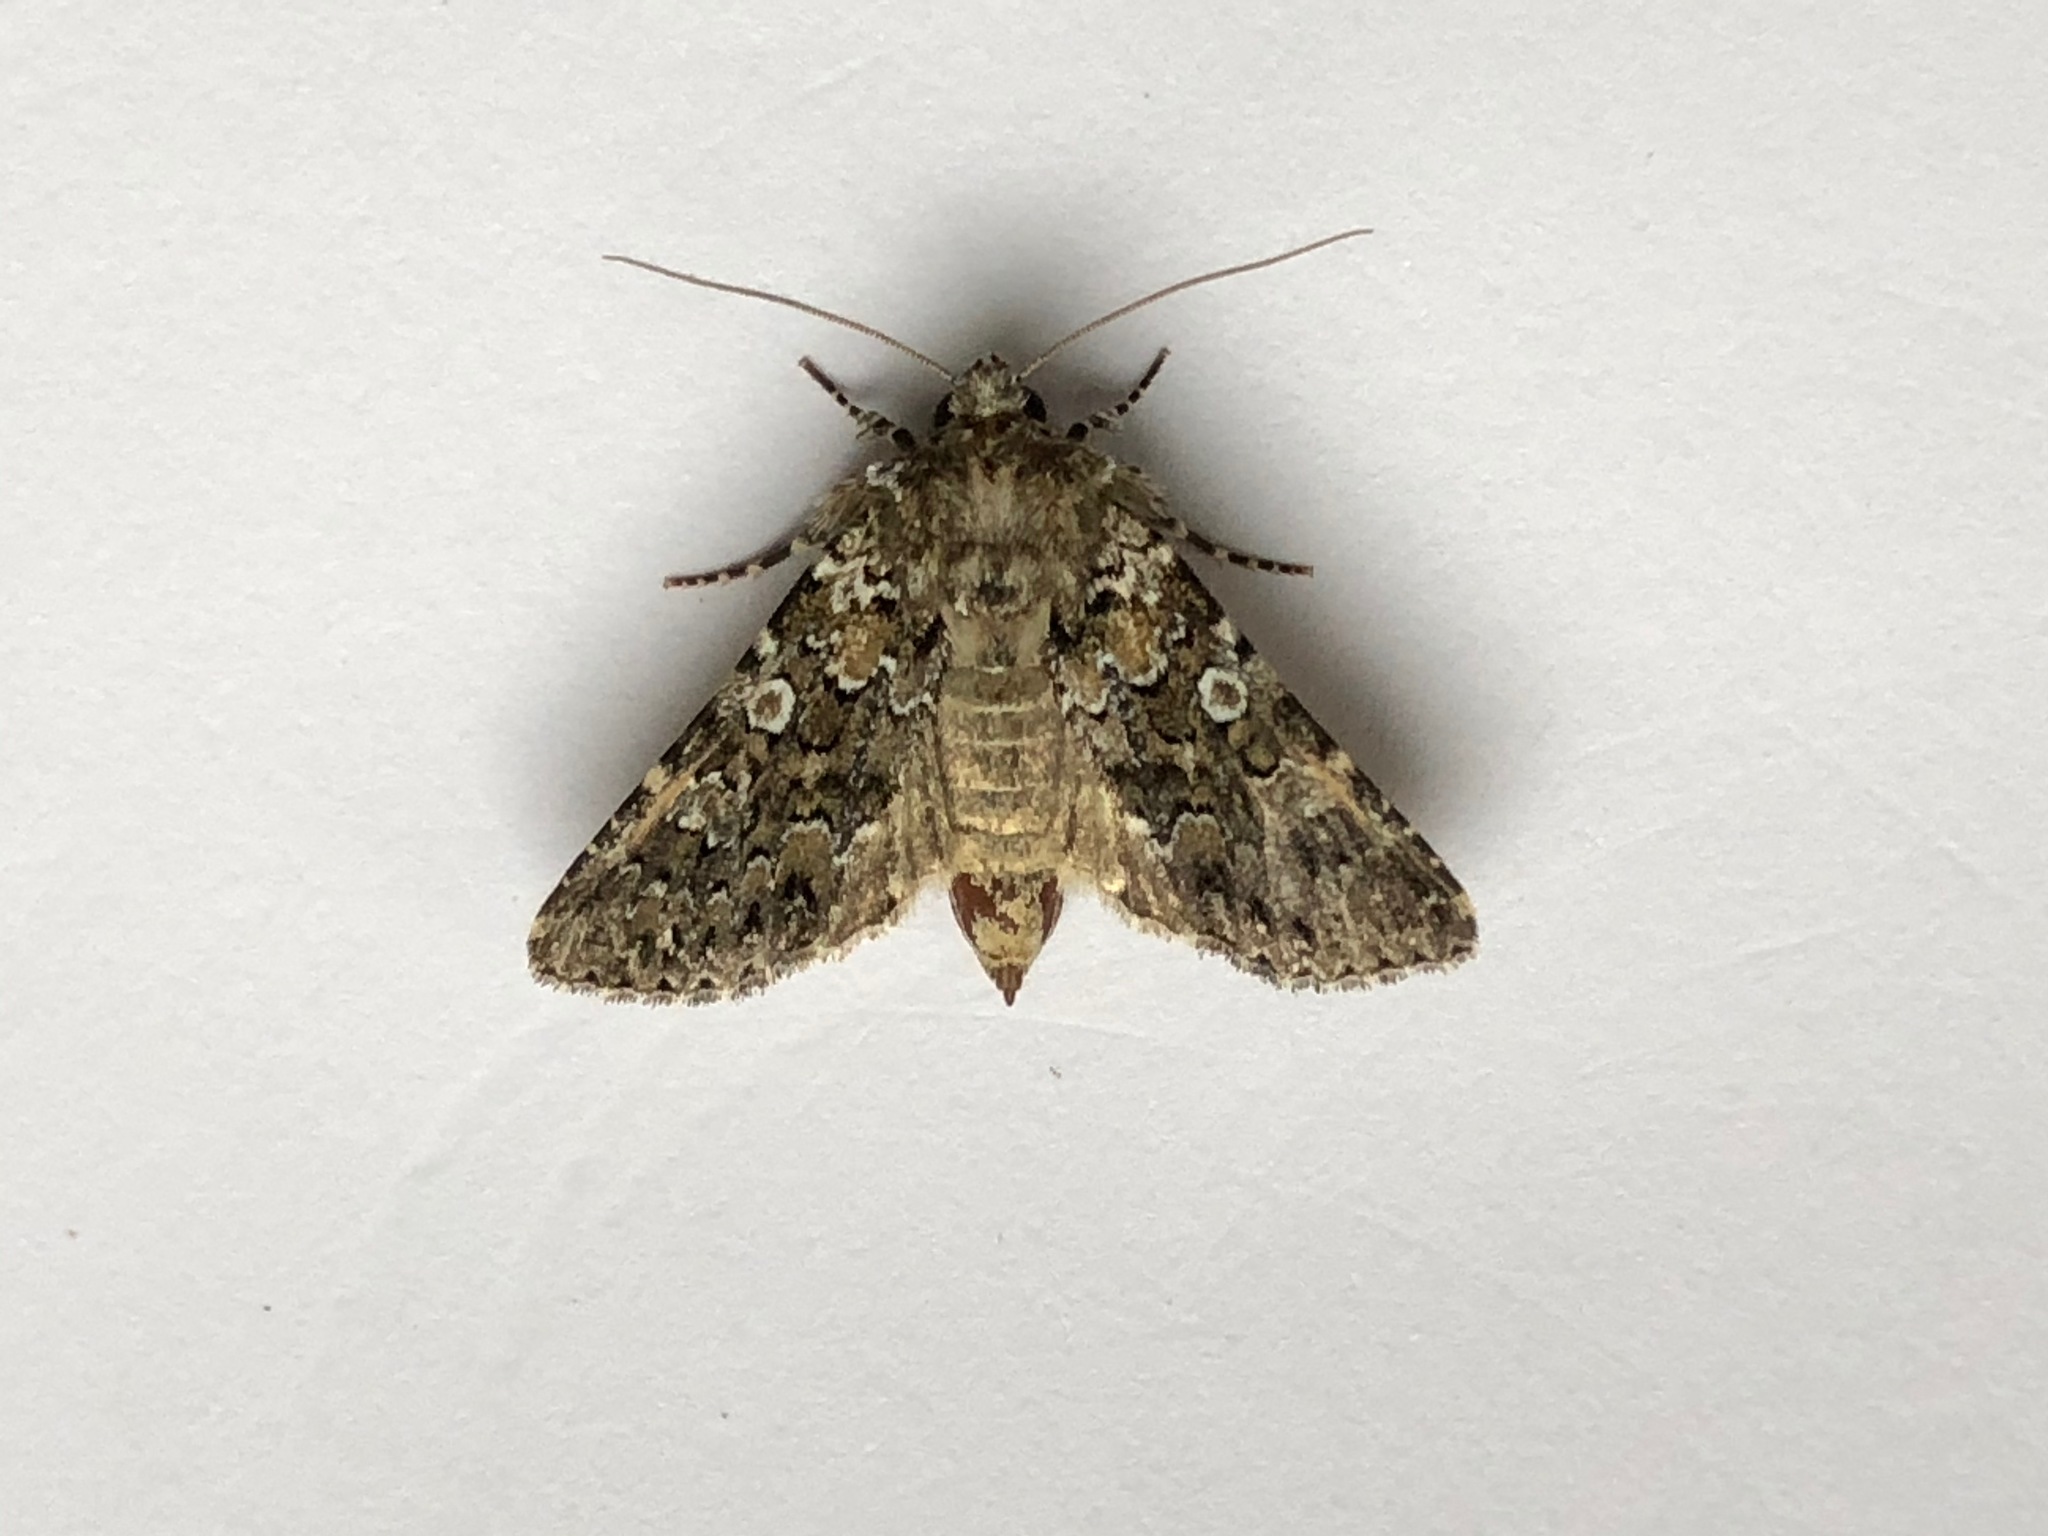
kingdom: Animalia
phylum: Arthropoda
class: Insecta
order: Lepidoptera
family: Noctuidae
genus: Hadena
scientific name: Hadena magnolii
